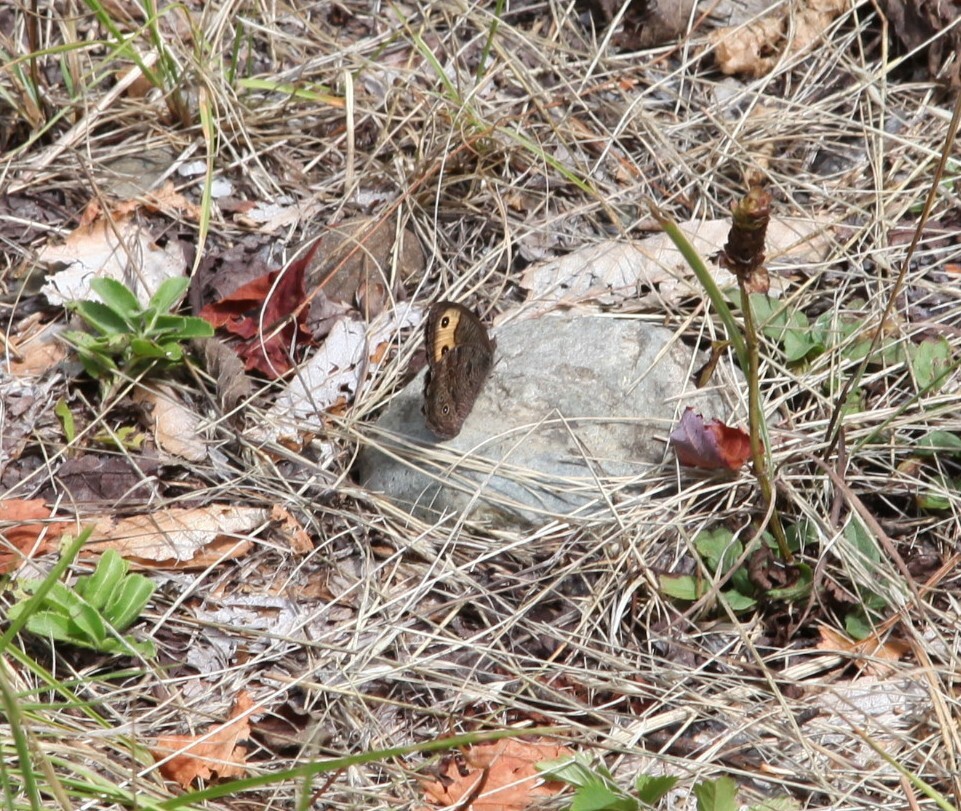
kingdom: Animalia
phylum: Arthropoda
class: Insecta
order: Lepidoptera
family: Nymphalidae
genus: Cercyonis
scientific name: Cercyonis pegala
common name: Common wood-nymph
